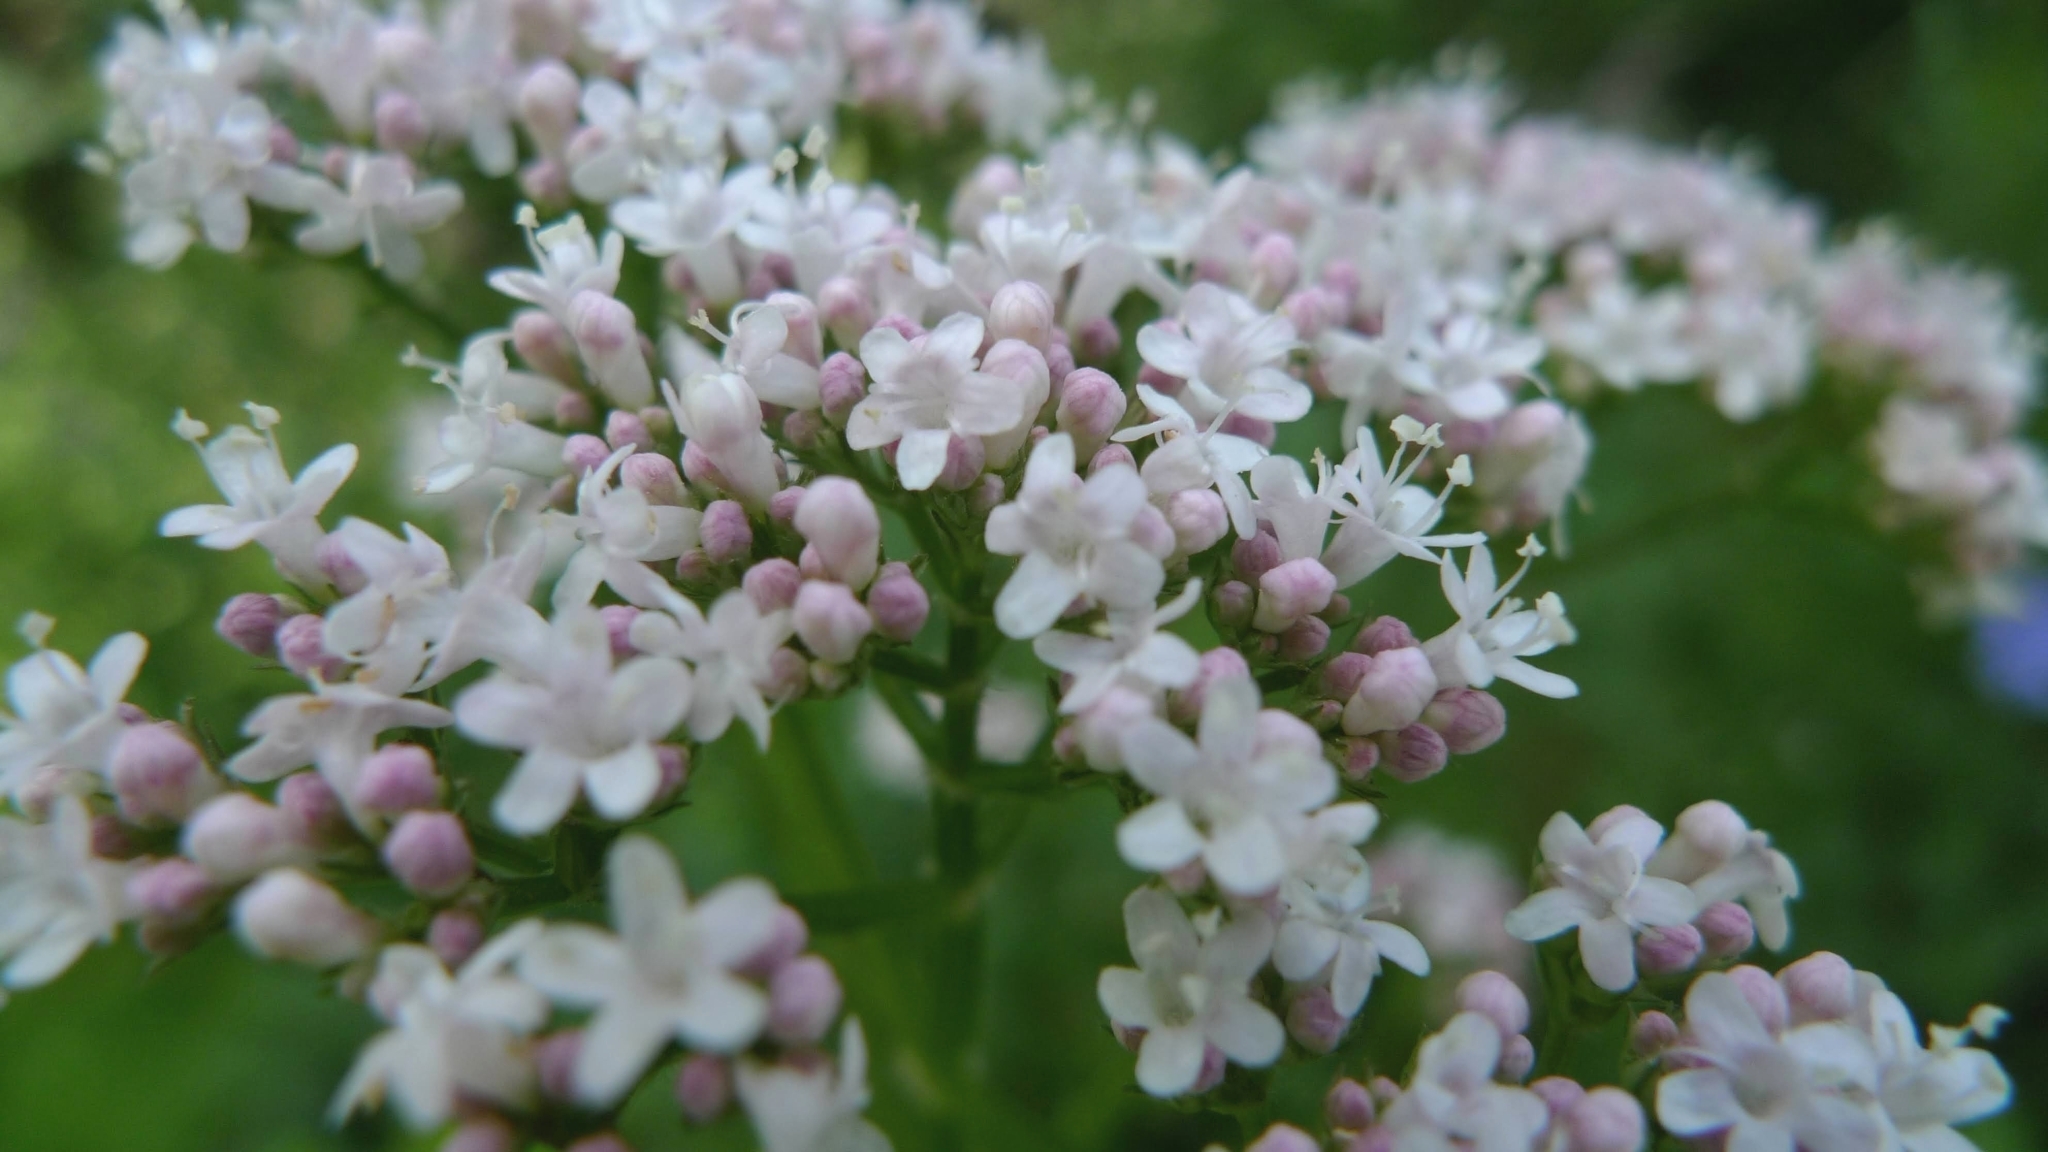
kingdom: Plantae
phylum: Tracheophyta
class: Magnoliopsida
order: Dipsacales
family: Caprifoliaceae
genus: Valeriana
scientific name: Valeriana officinalis
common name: Common valerian
